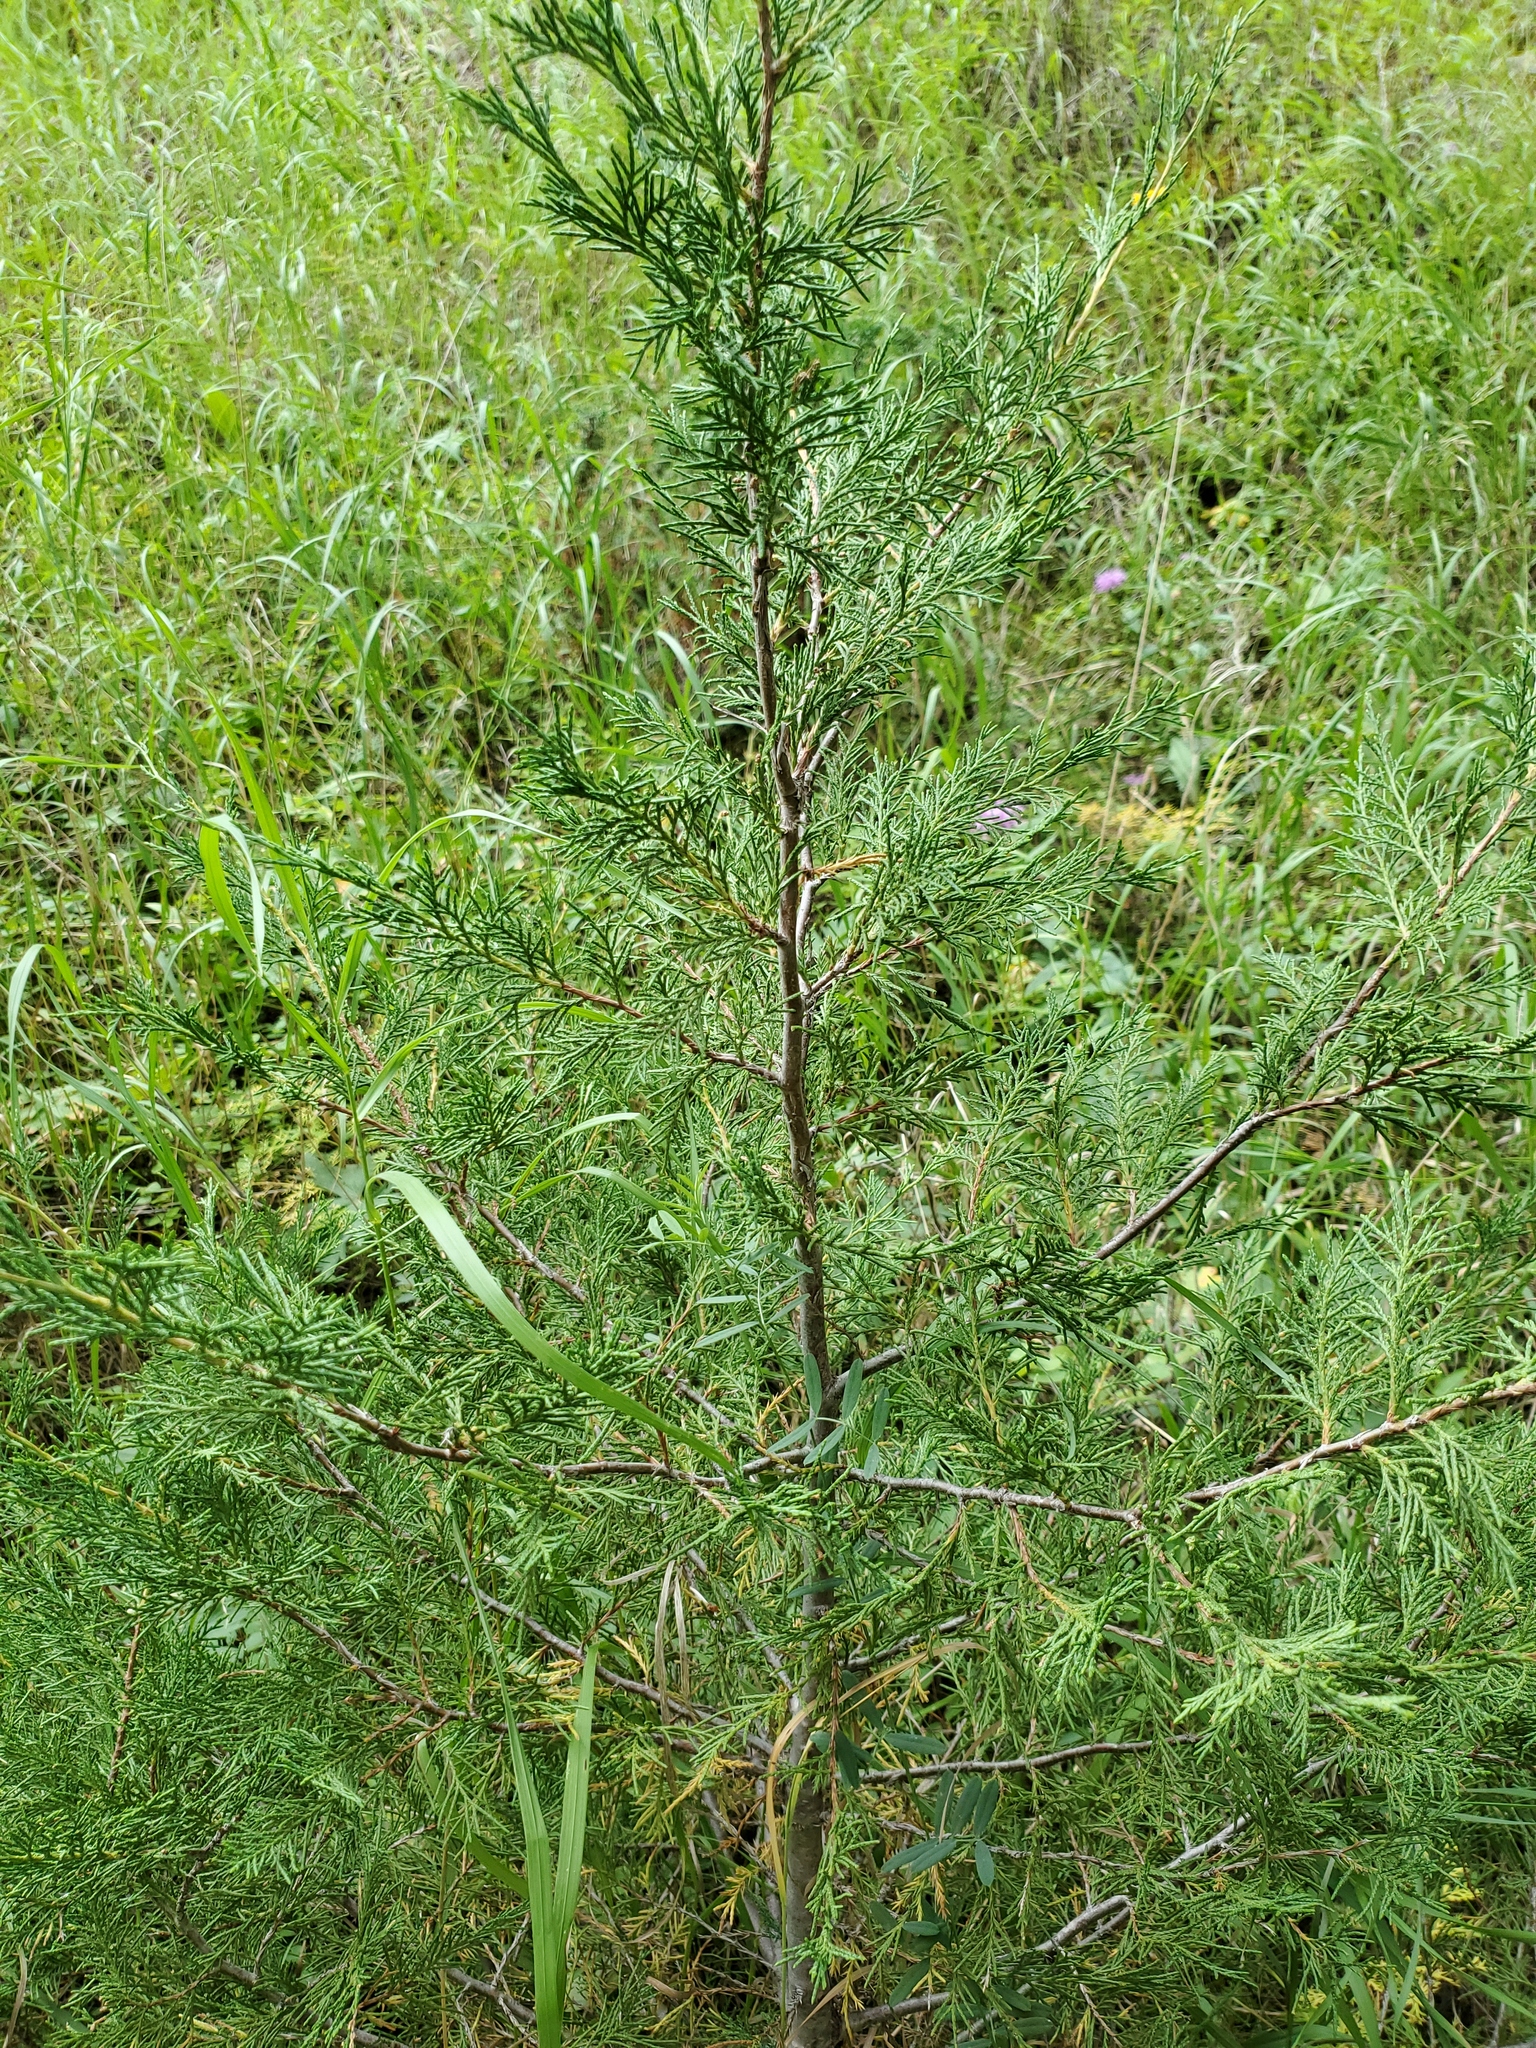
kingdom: Plantae
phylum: Tracheophyta
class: Pinopsida
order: Pinales
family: Cupressaceae
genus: Juniperus
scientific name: Juniperus scopulorum
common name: Rocky mountain juniper
